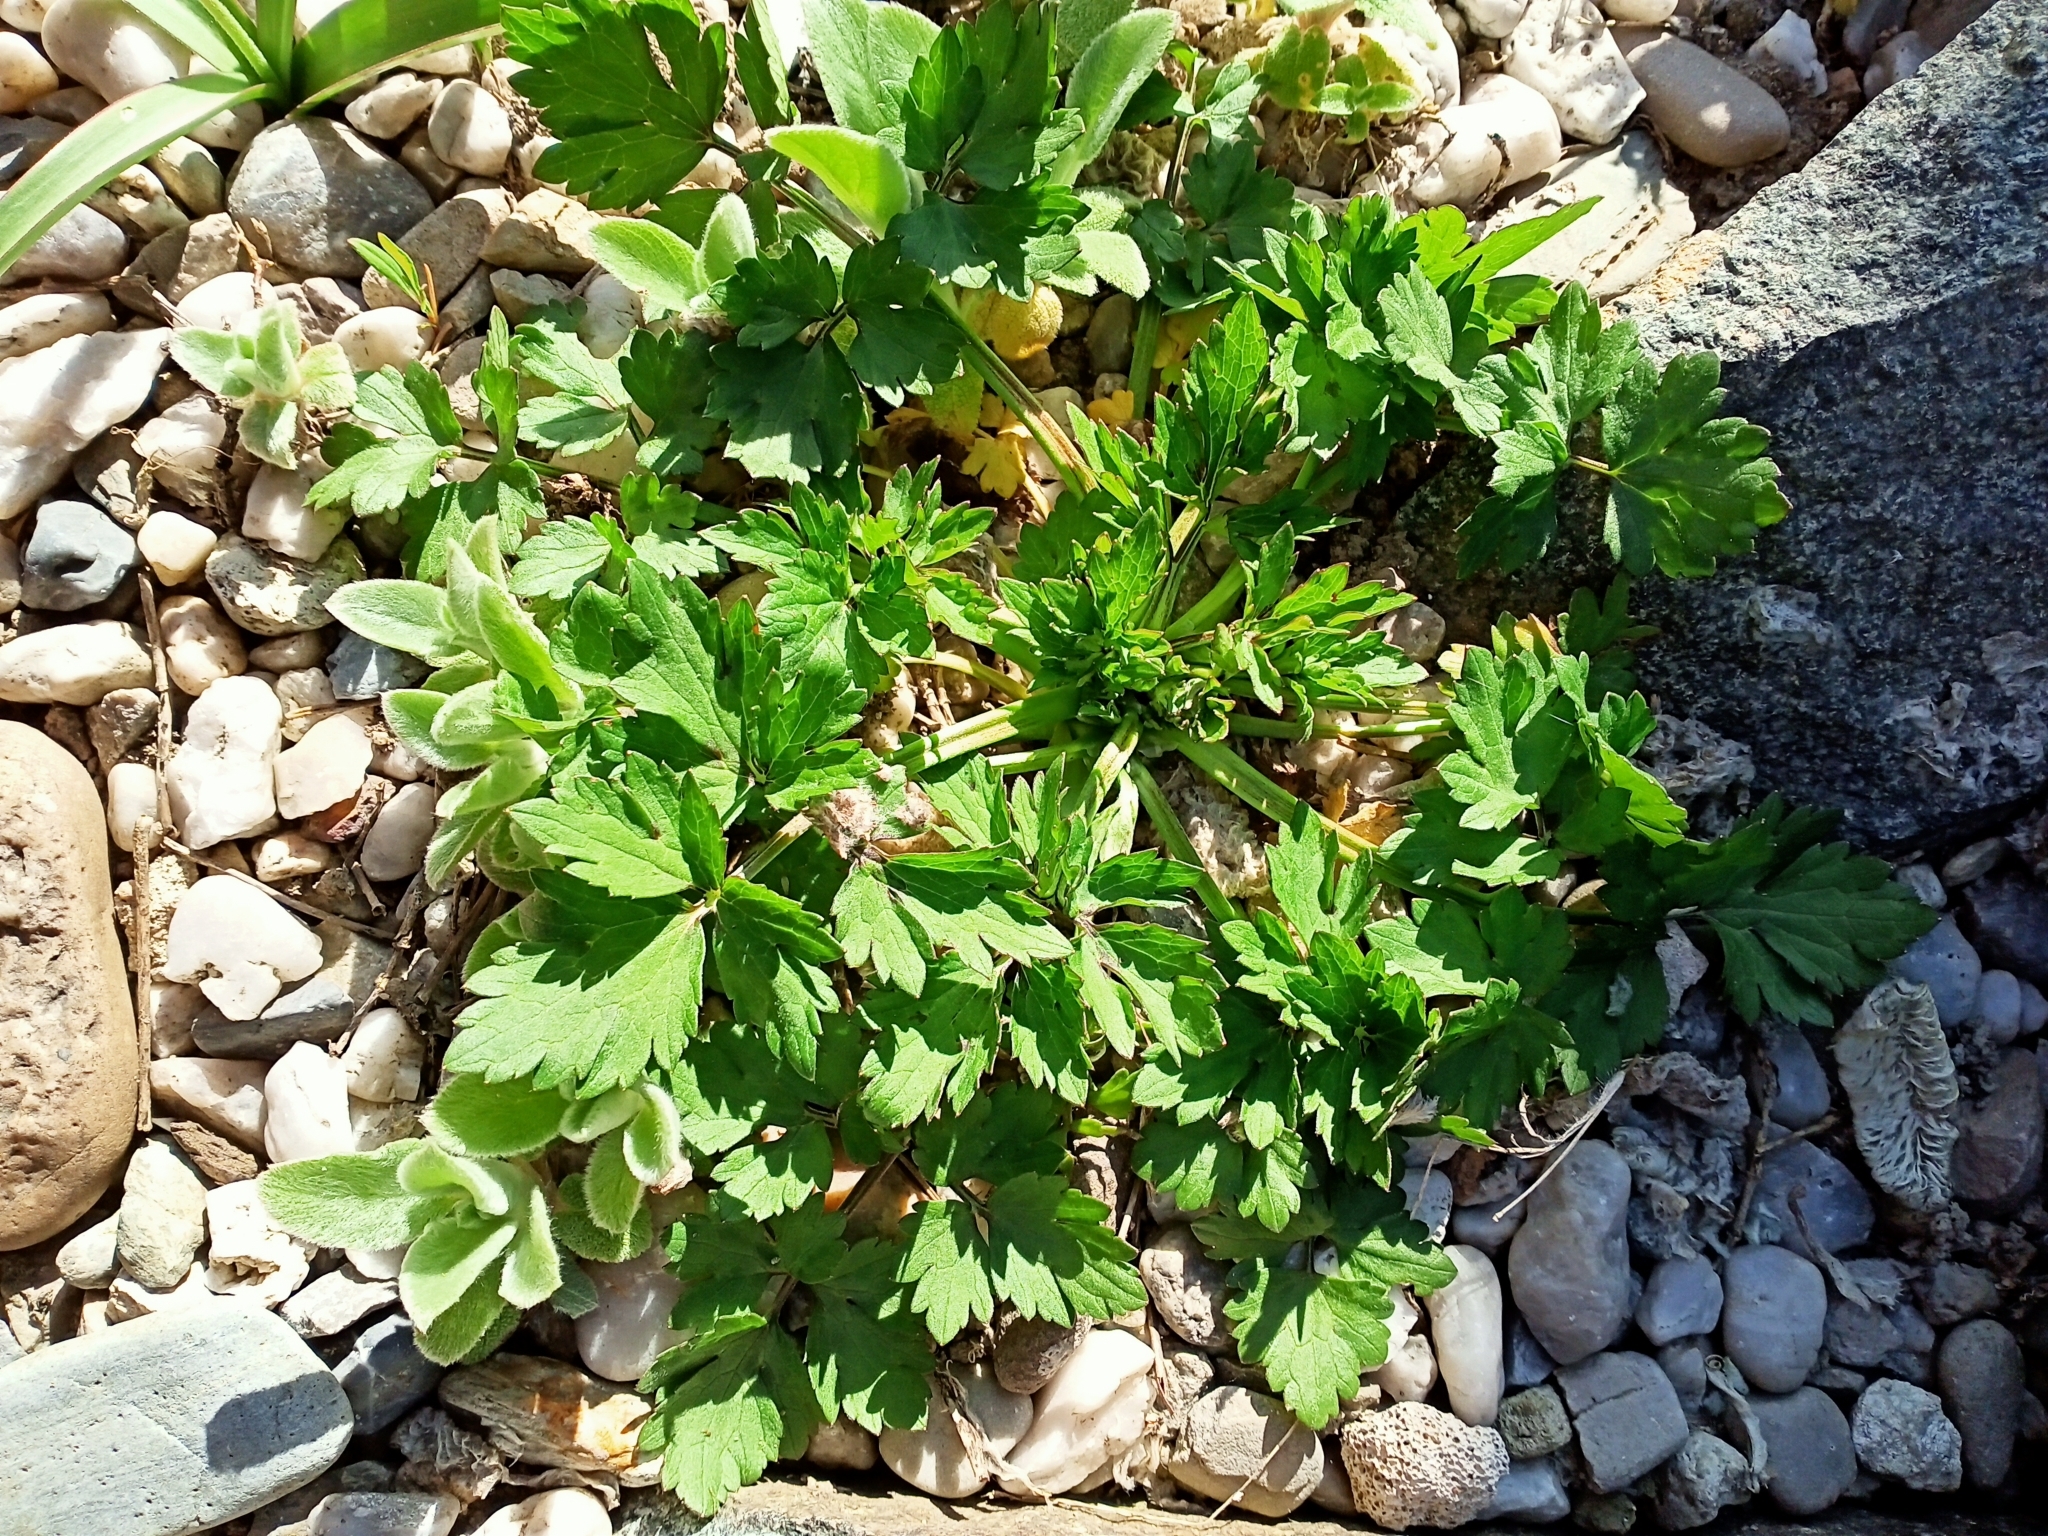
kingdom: Plantae
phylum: Tracheophyta
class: Magnoliopsida
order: Ranunculales
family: Ranunculaceae
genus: Ranunculus
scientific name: Ranunculus repens
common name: Creeping buttercup
